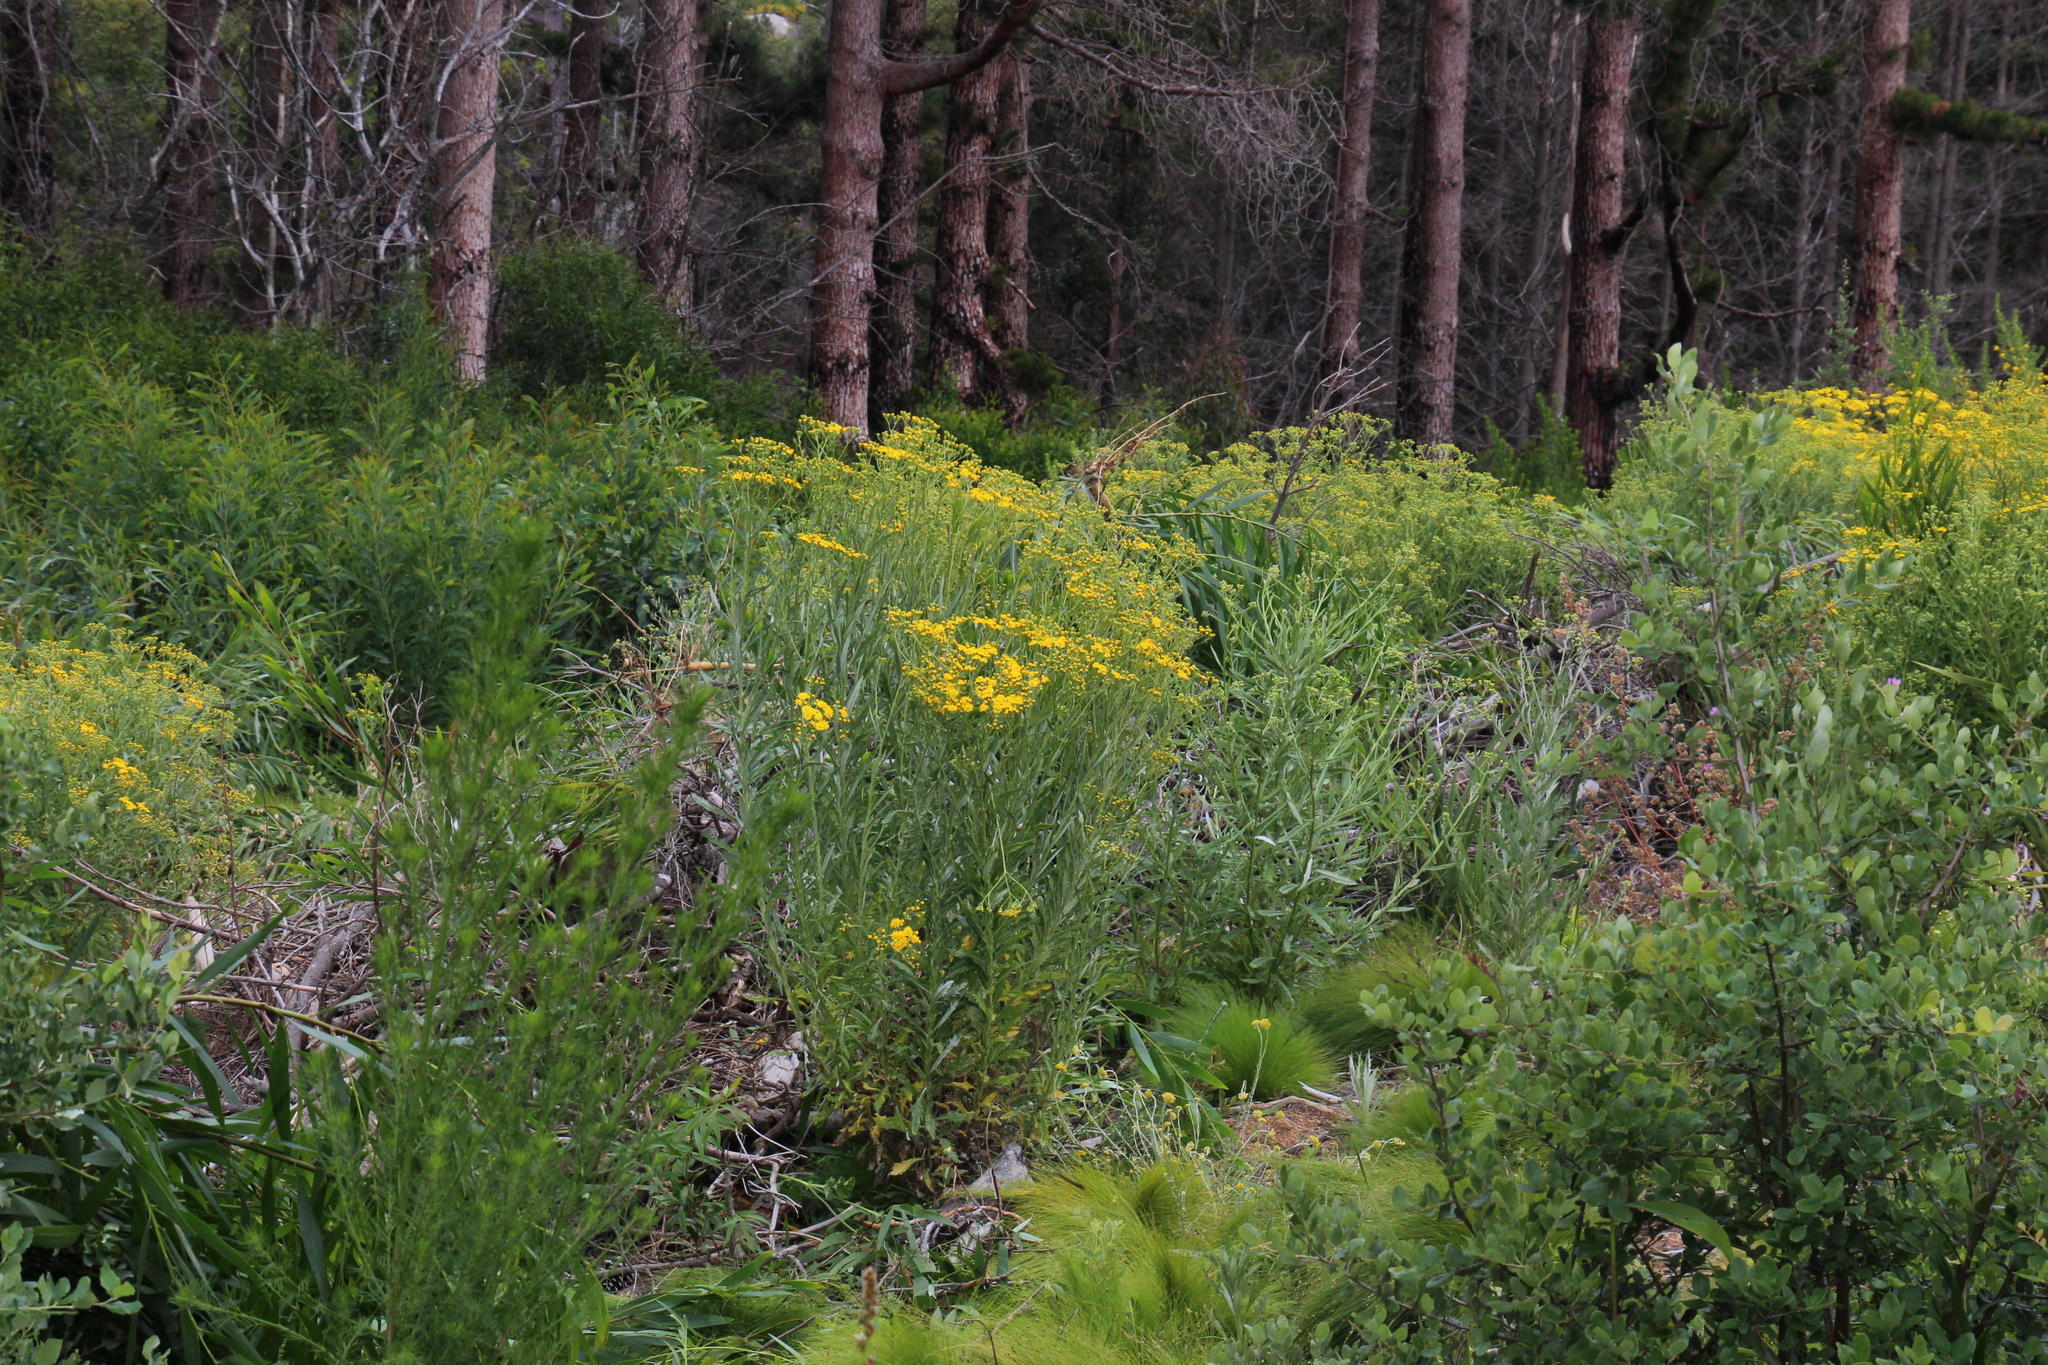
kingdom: Plantae
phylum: Tracheophyta
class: Magnoliopsida
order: Asterales
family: Asteraceae
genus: Senecio
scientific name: Senecio pterophorus
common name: Shoddy ragwort
